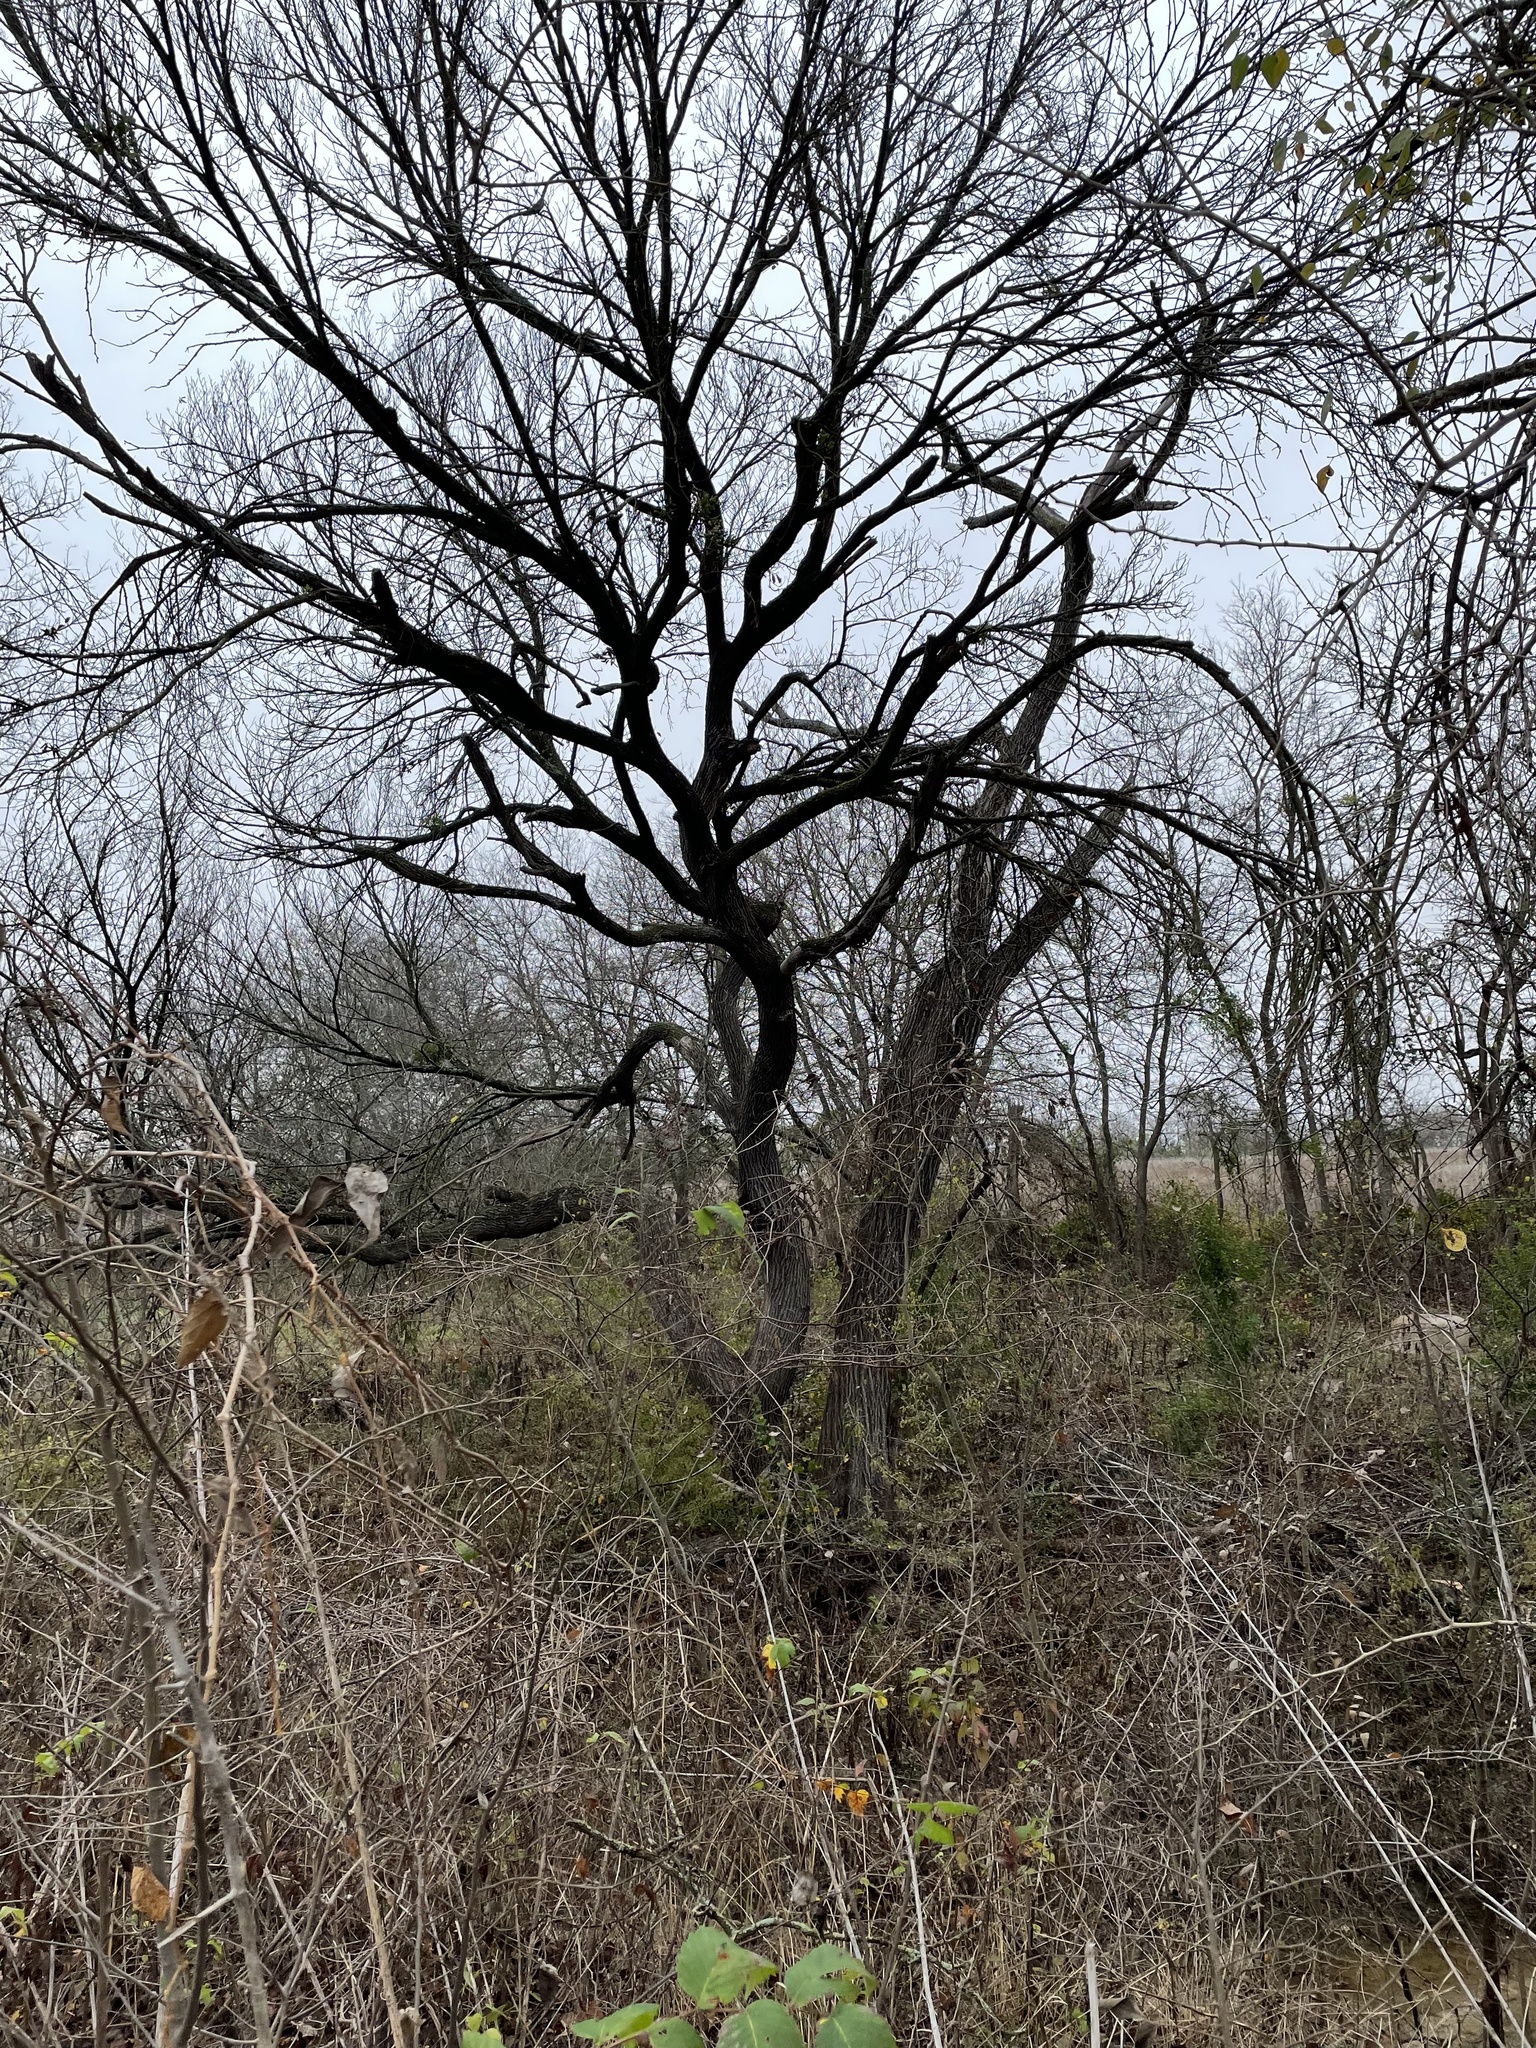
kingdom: Plantae
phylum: Tracheophyta
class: Magnoliopsida
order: Rosales
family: Ulmaceae
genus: Ulmus
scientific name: Ulmus americana
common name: American elm
